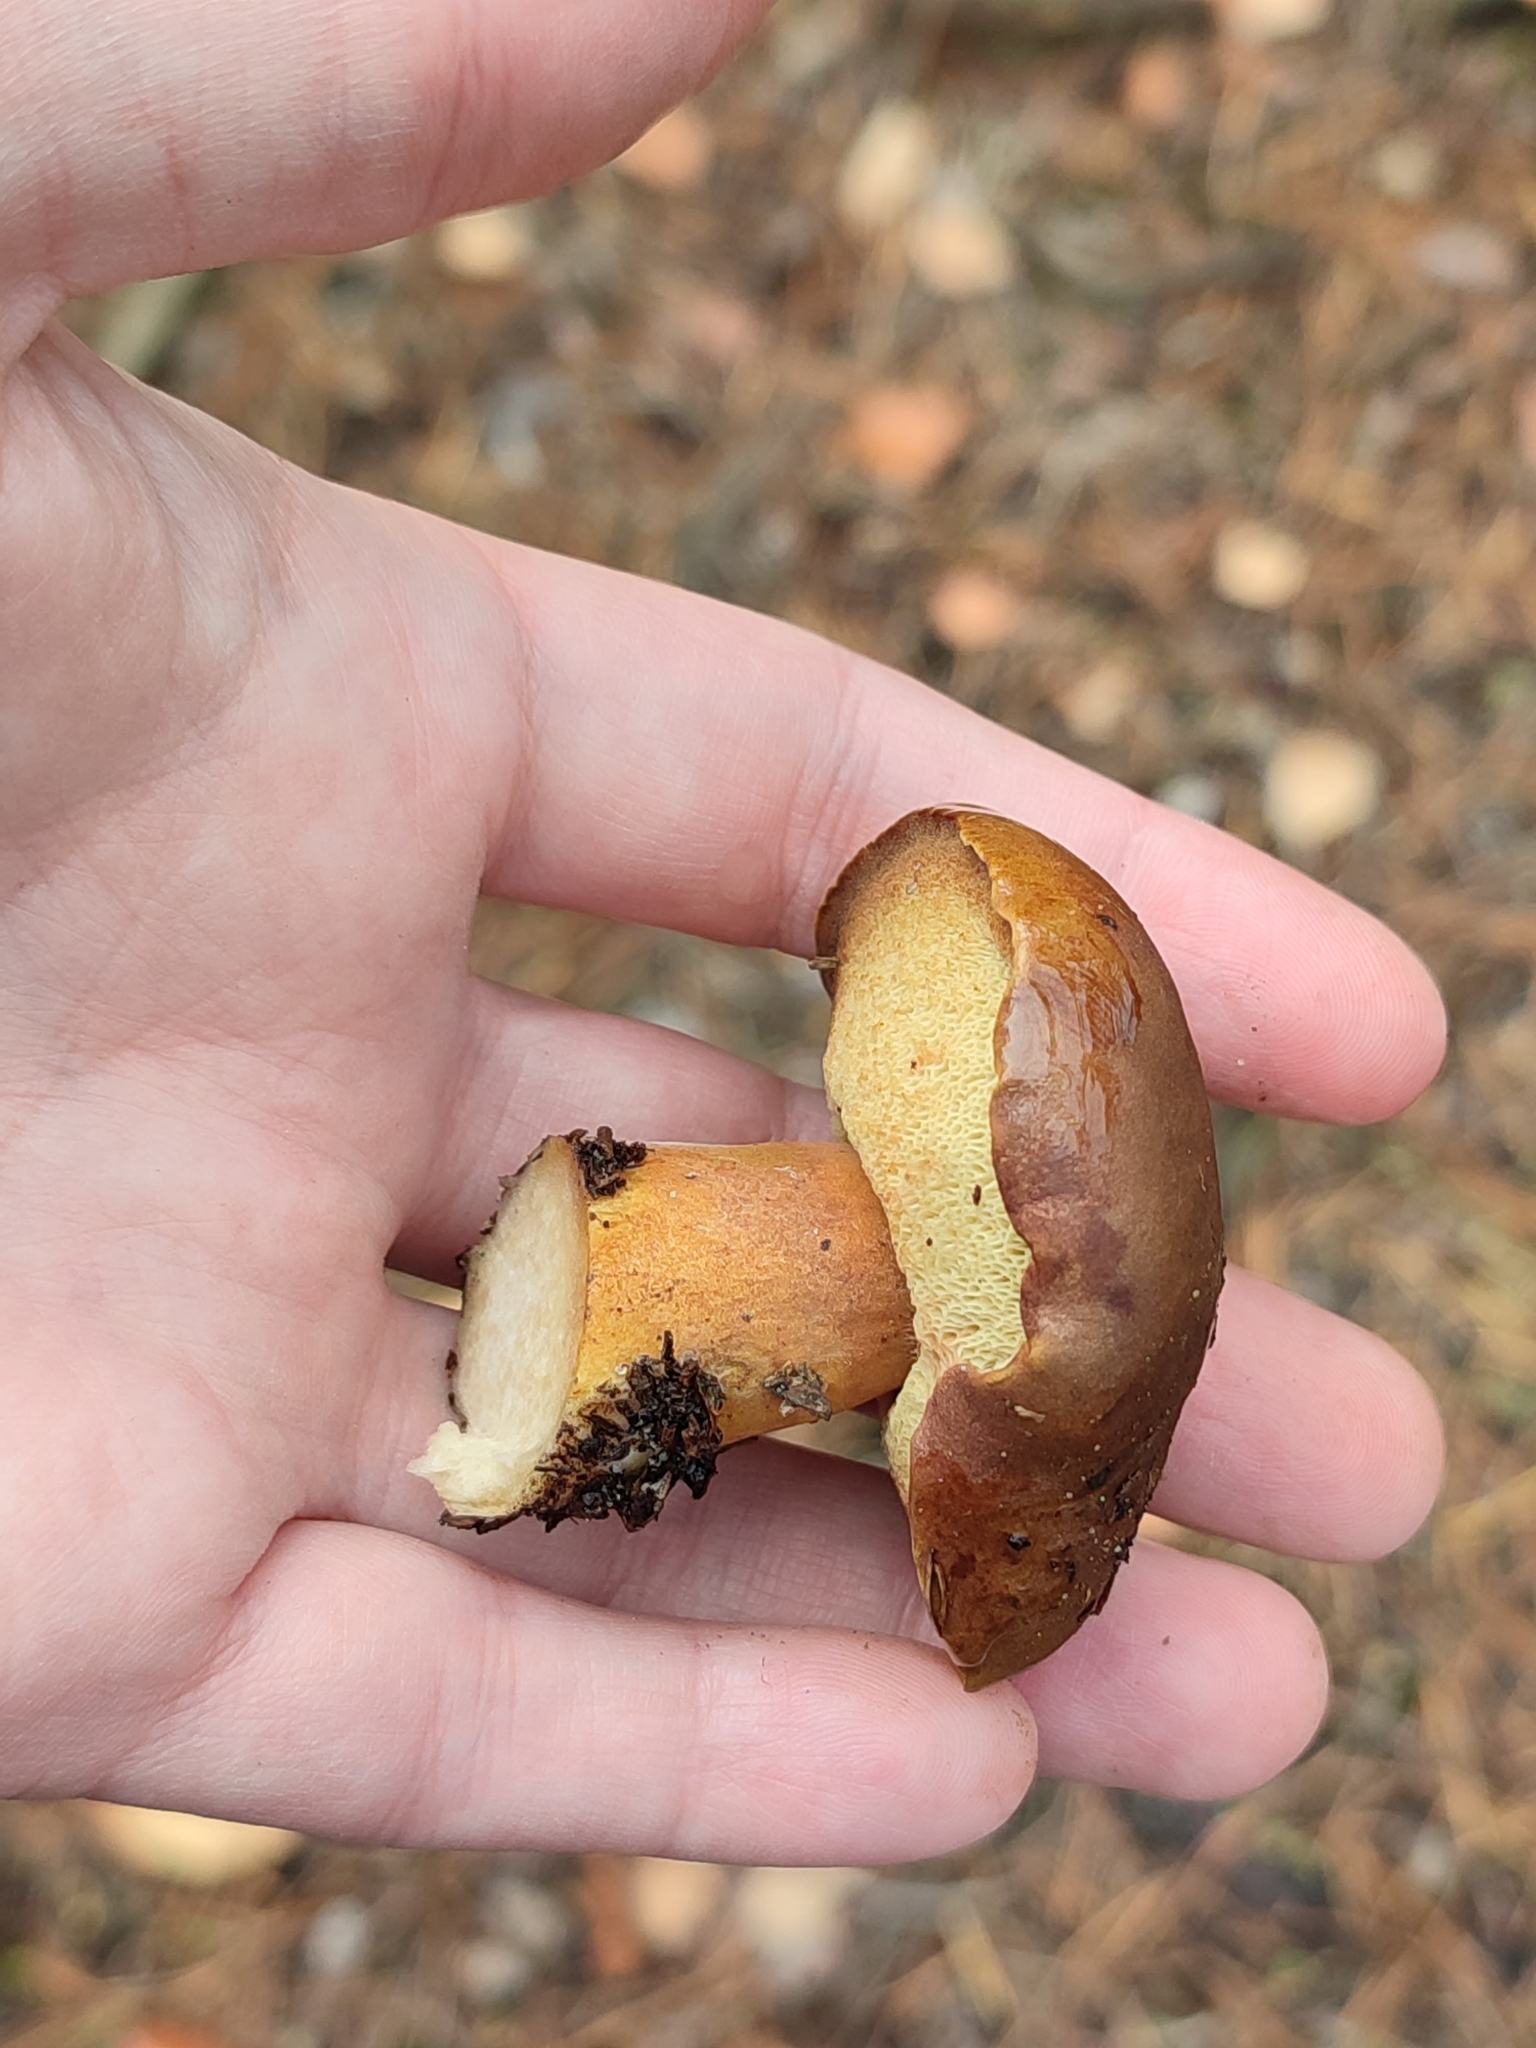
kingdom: Fungi
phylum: Basidiomycota
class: Agaricomycetes
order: Boletales
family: Boletaceae
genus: Imleria
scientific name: Imleria badia
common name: Bay bolete
